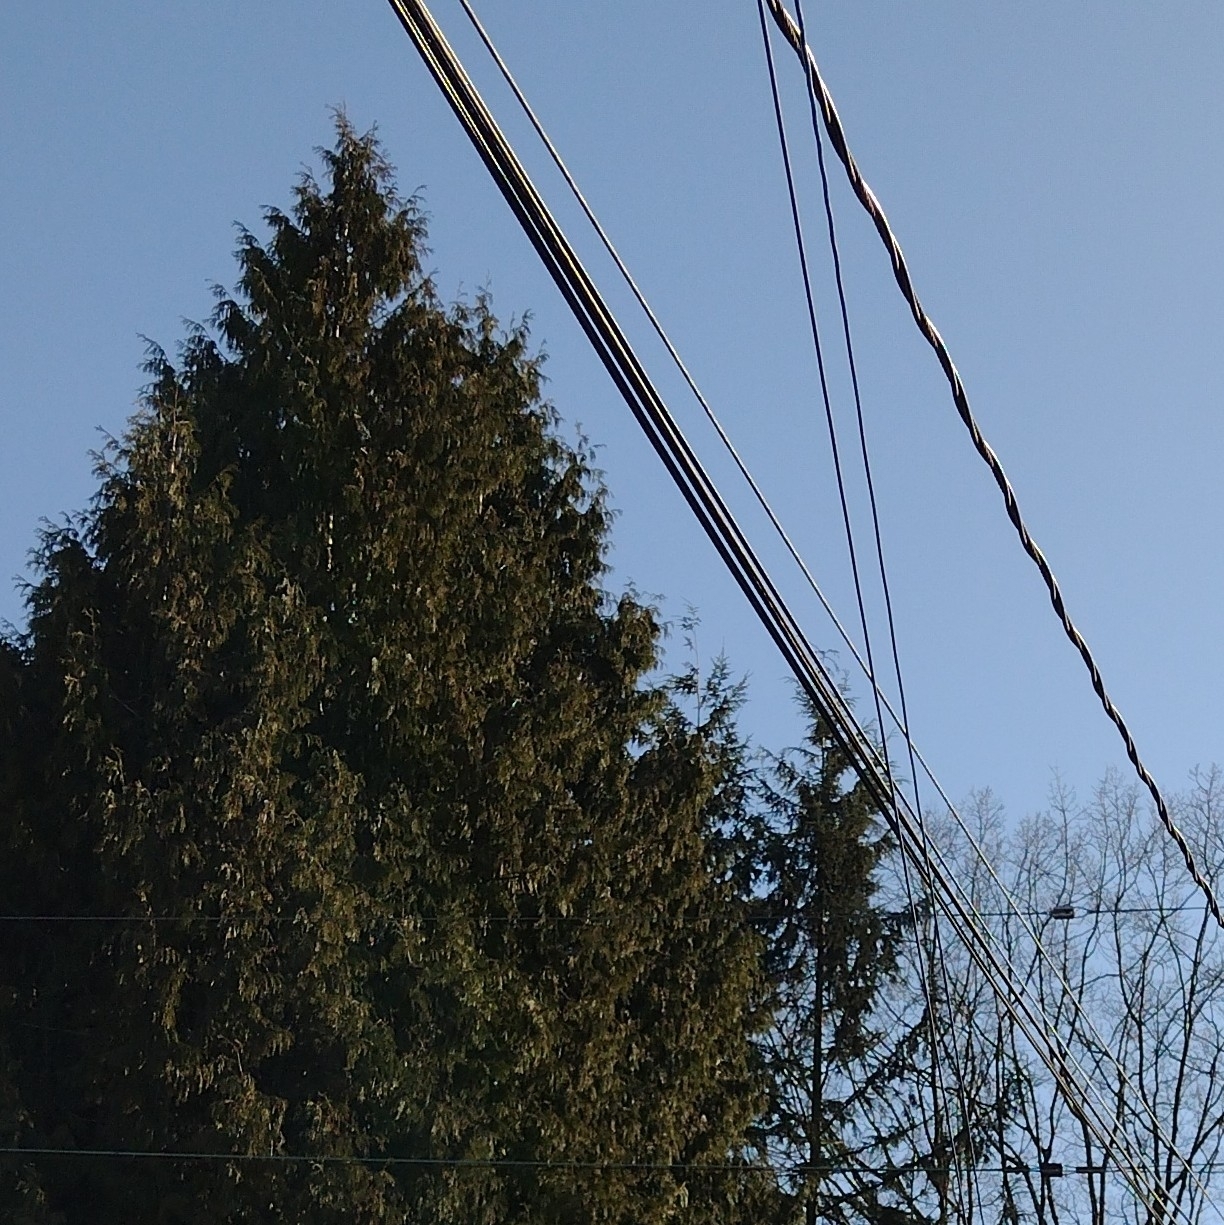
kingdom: Animalia
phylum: Chordata
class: Aves
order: Passeriformes
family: Sturnidae
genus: Sturnus
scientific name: Sturnus vulgaris
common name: Common starling
